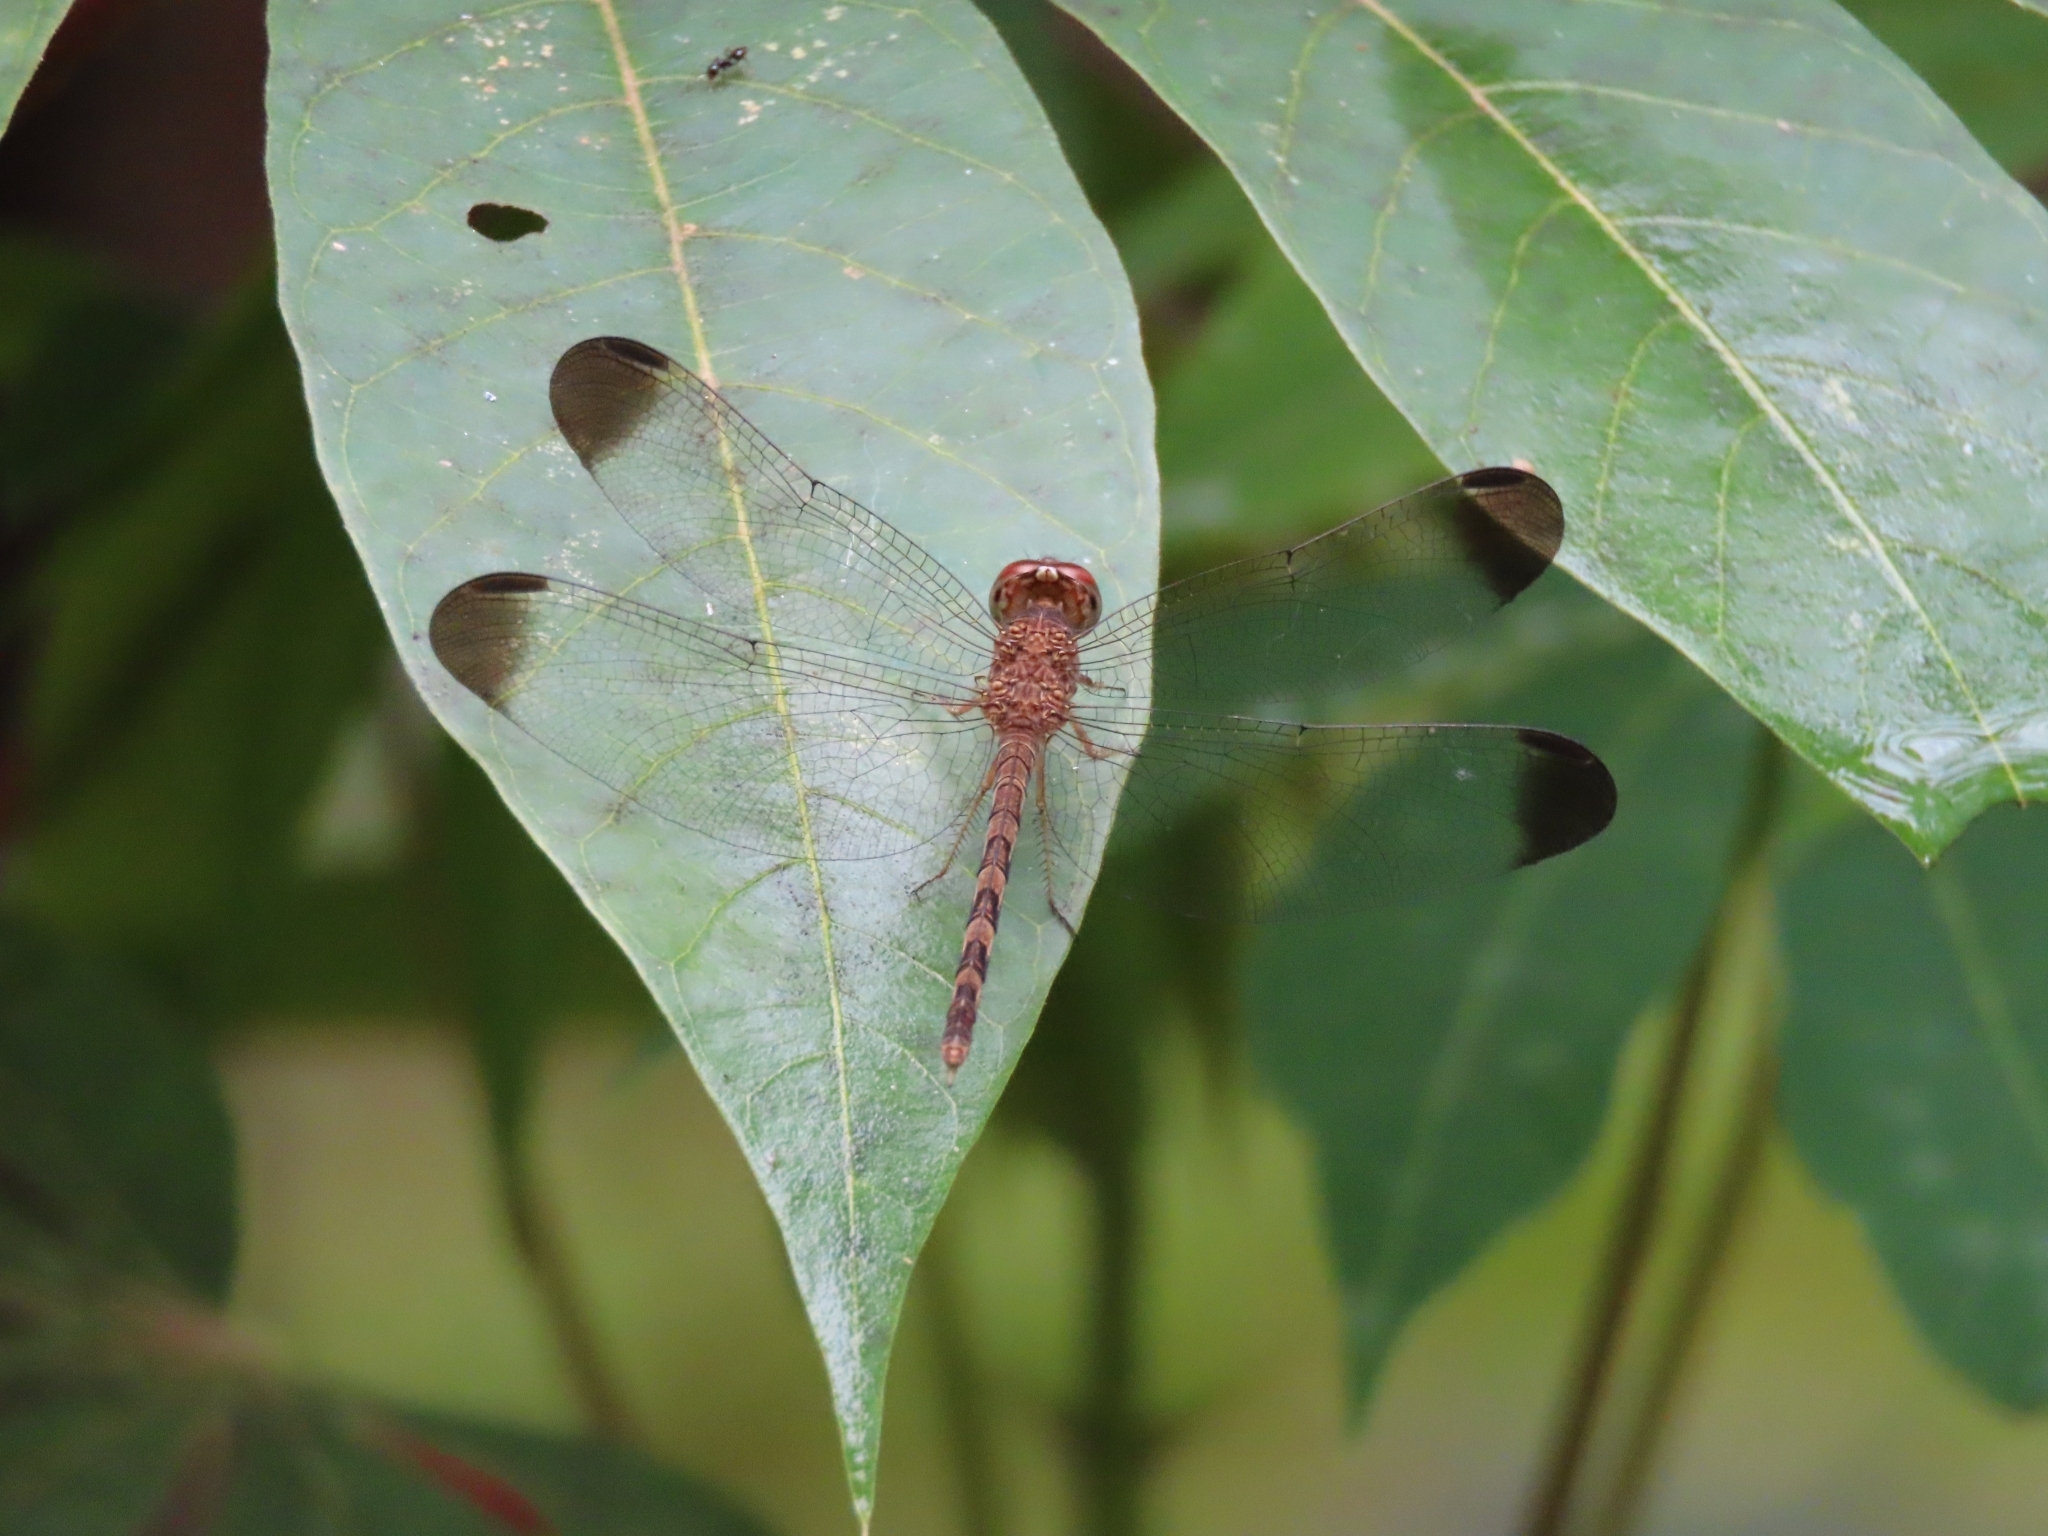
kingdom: Animalia
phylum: Arthropoda
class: Insecta
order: Odonata
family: Libellulidae
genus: Uracis
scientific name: Uracis imbuta
